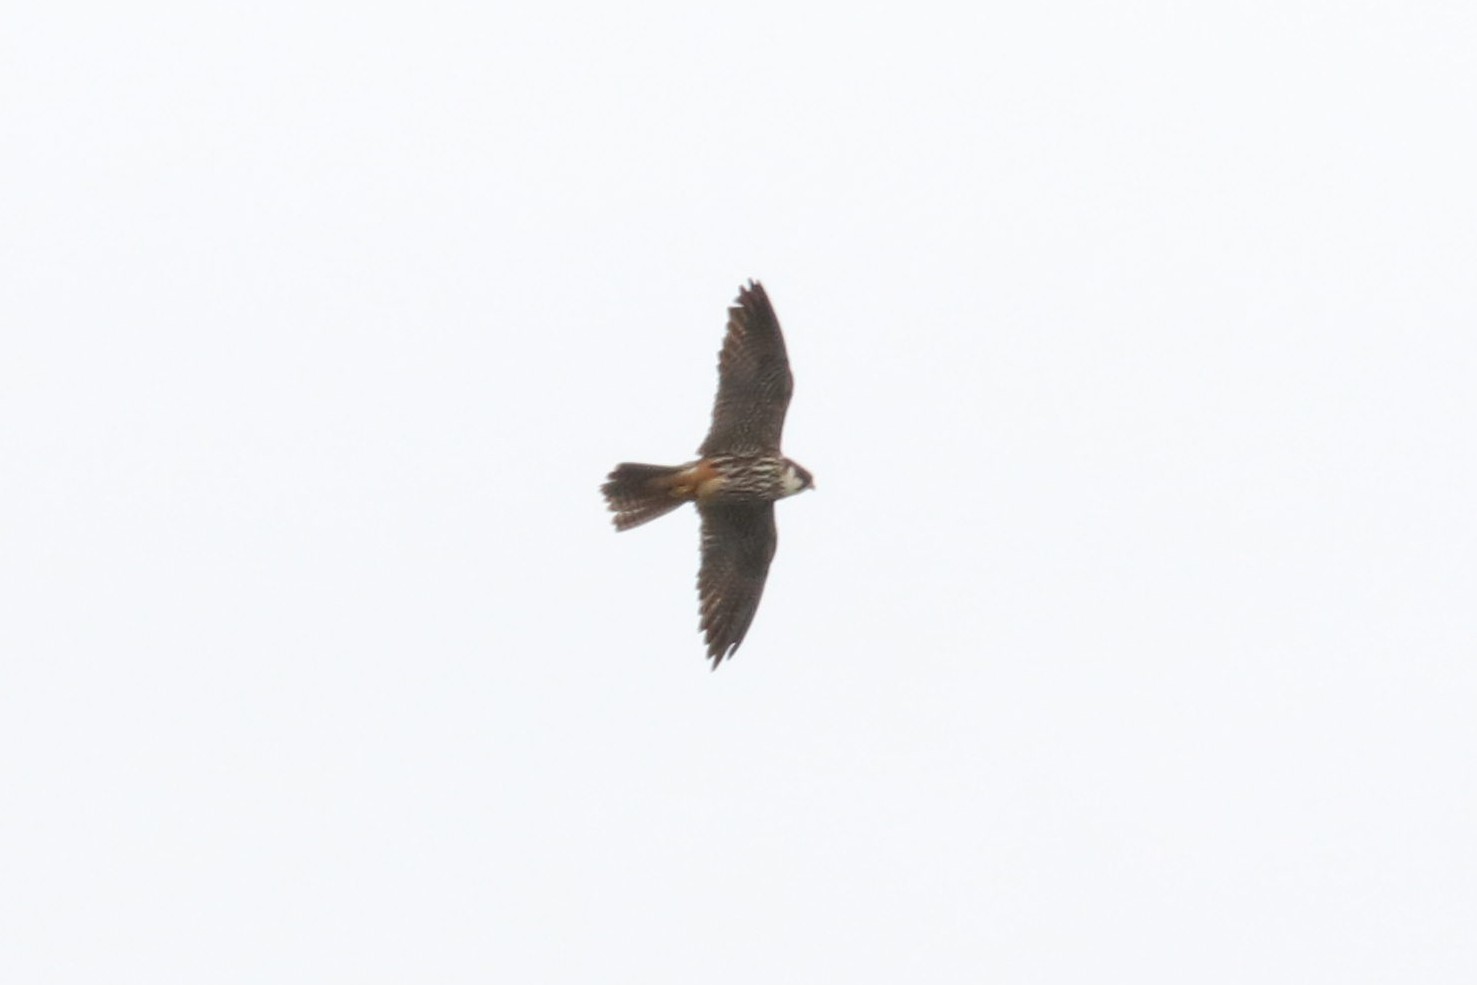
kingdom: Animalia
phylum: Chordata
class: Aves
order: Falconiformes
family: Falconidae
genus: Falco
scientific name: Falco subbuteo
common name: Eurasian hobby
